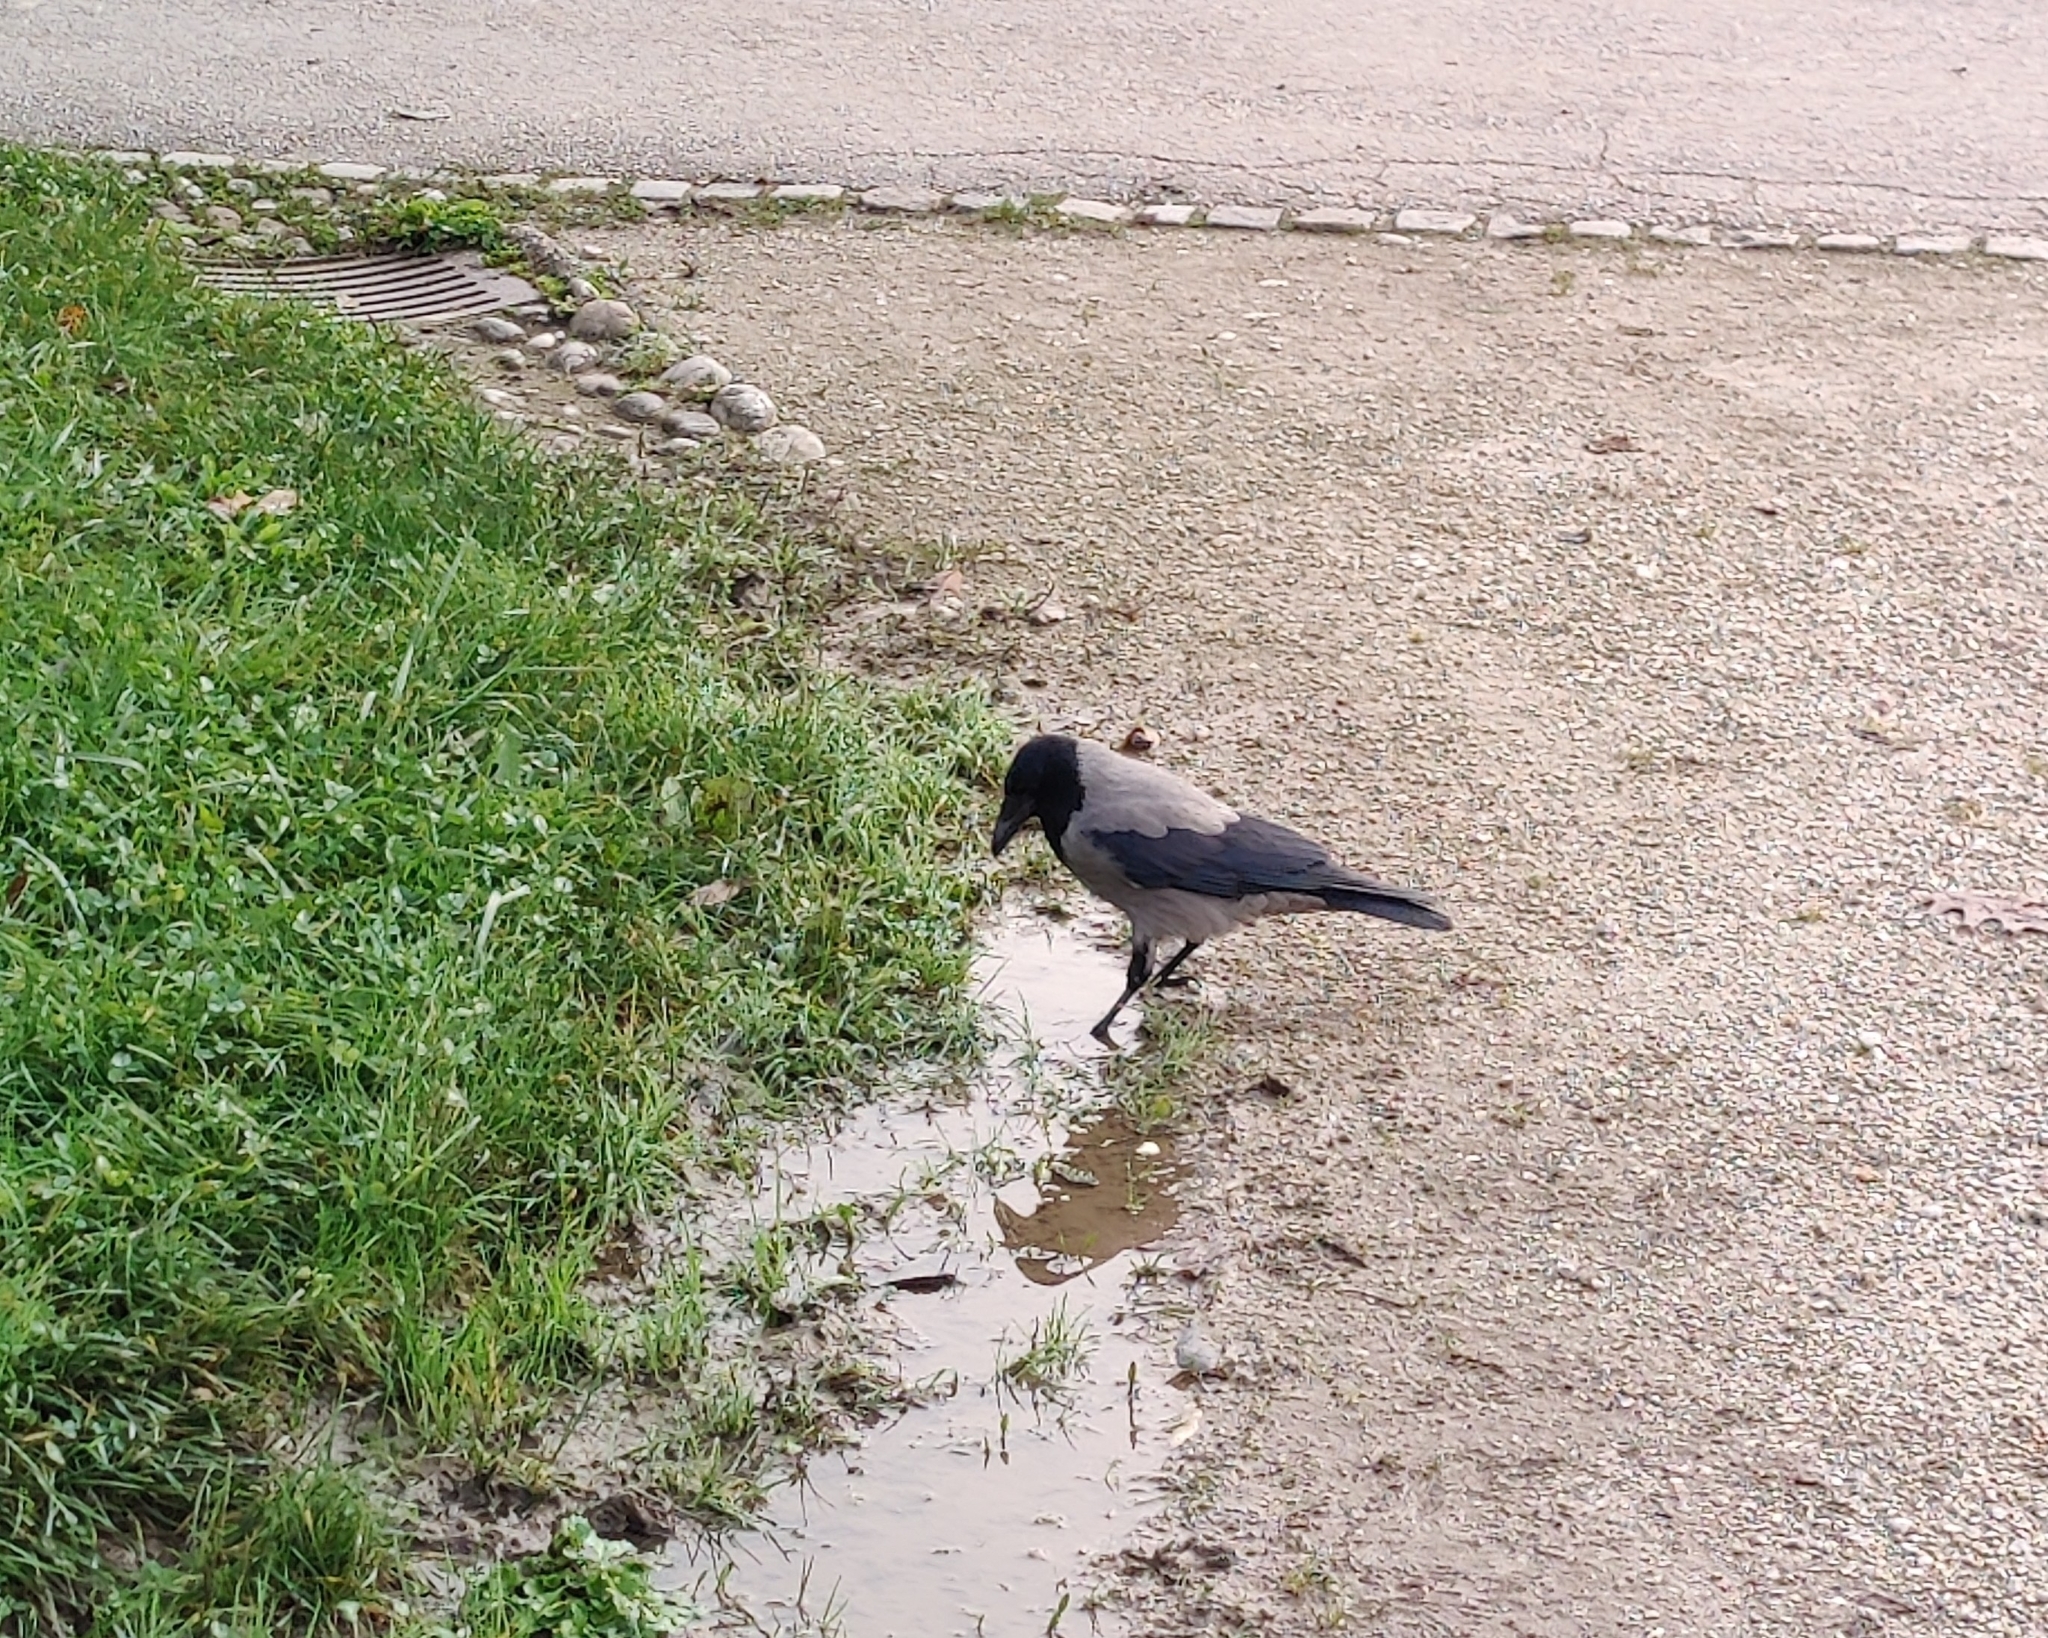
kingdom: Animalia
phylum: Chordata
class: Aves
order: Passeriformes
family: Corvidae
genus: Corvus
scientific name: Corvus cornix
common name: Hooded crow
